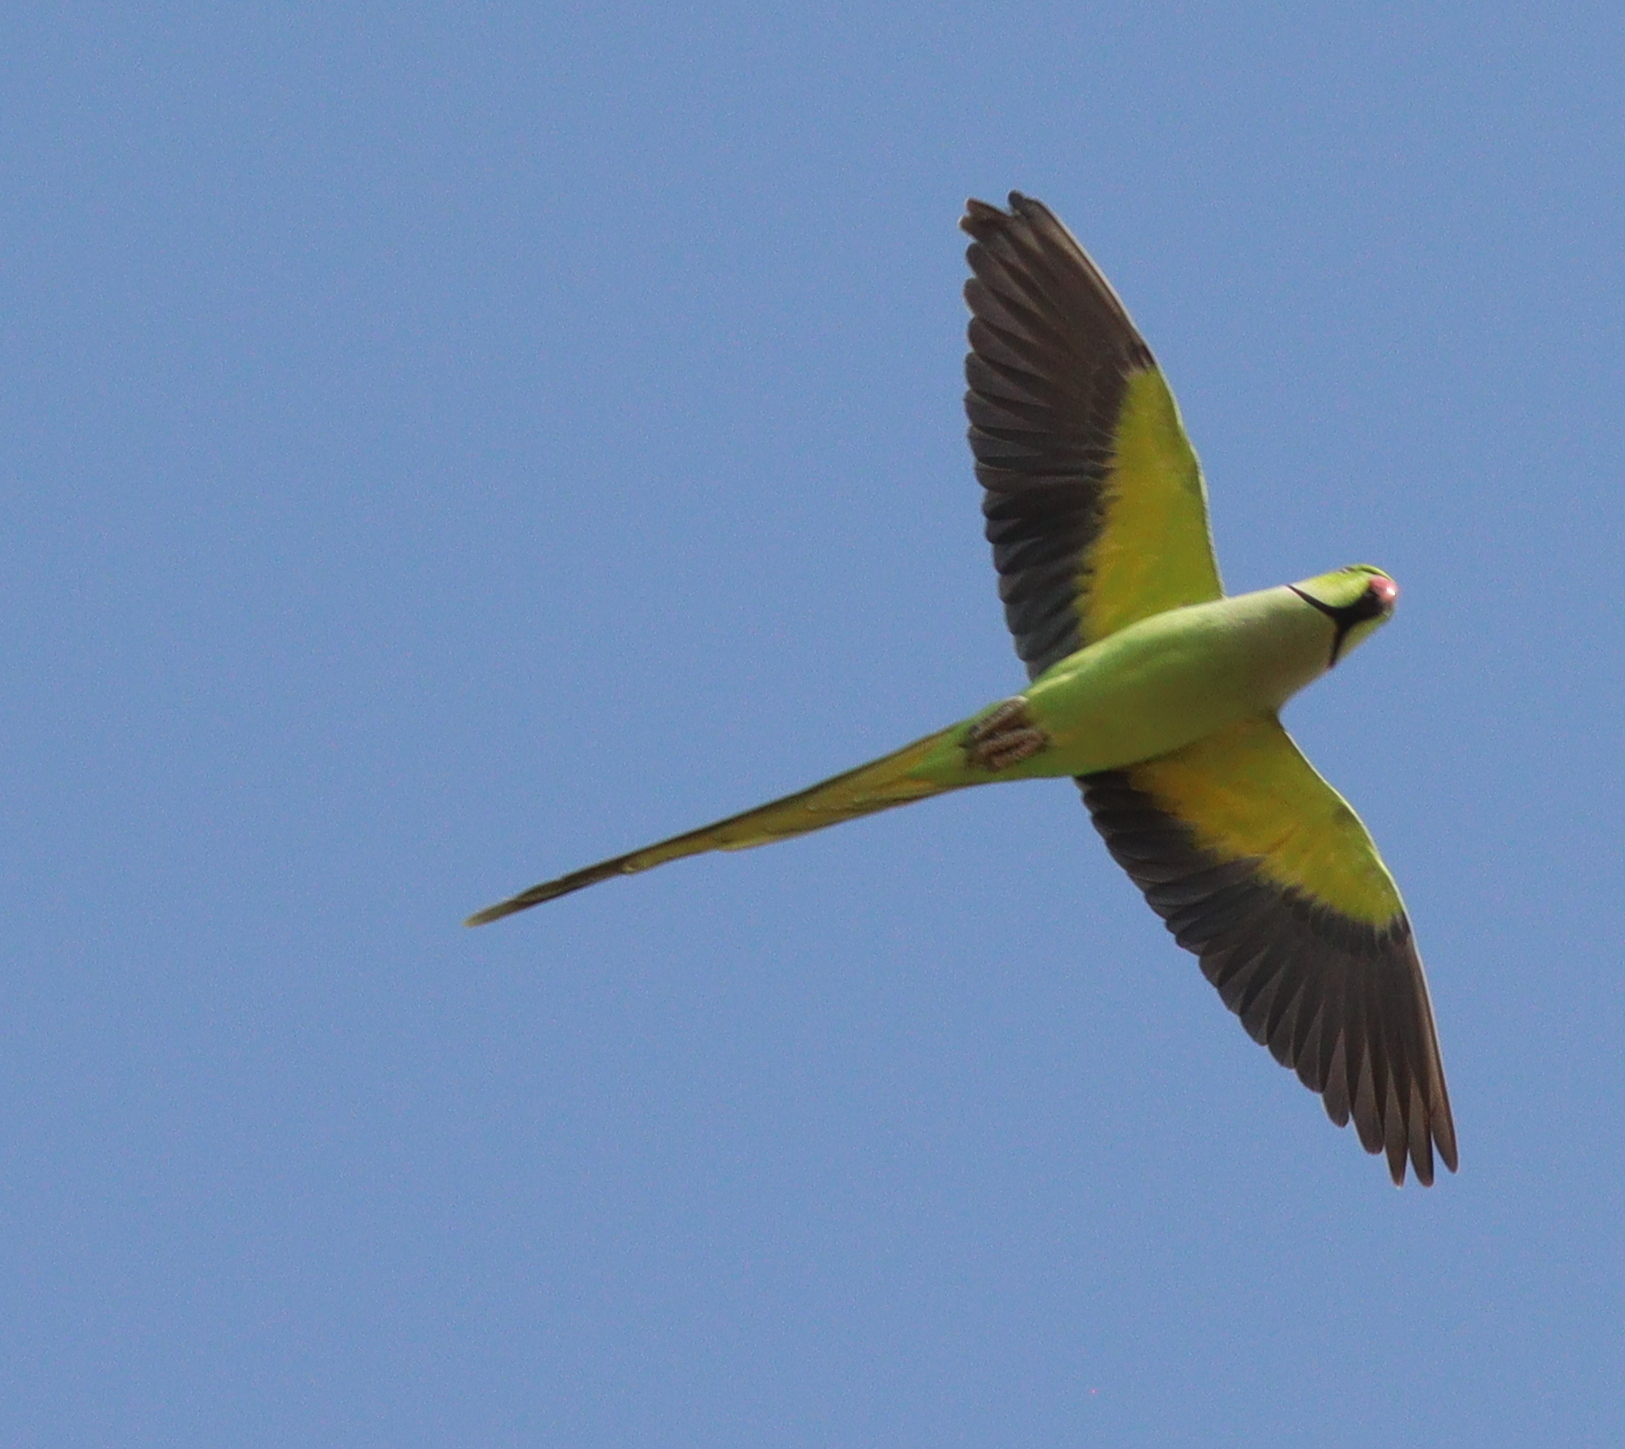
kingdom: Animalia
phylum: Chordata
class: Aves
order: Psittaciformes
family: Psittacidae
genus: Psittacula
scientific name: Psittacula krameri
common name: Rose-ringed parakeet
